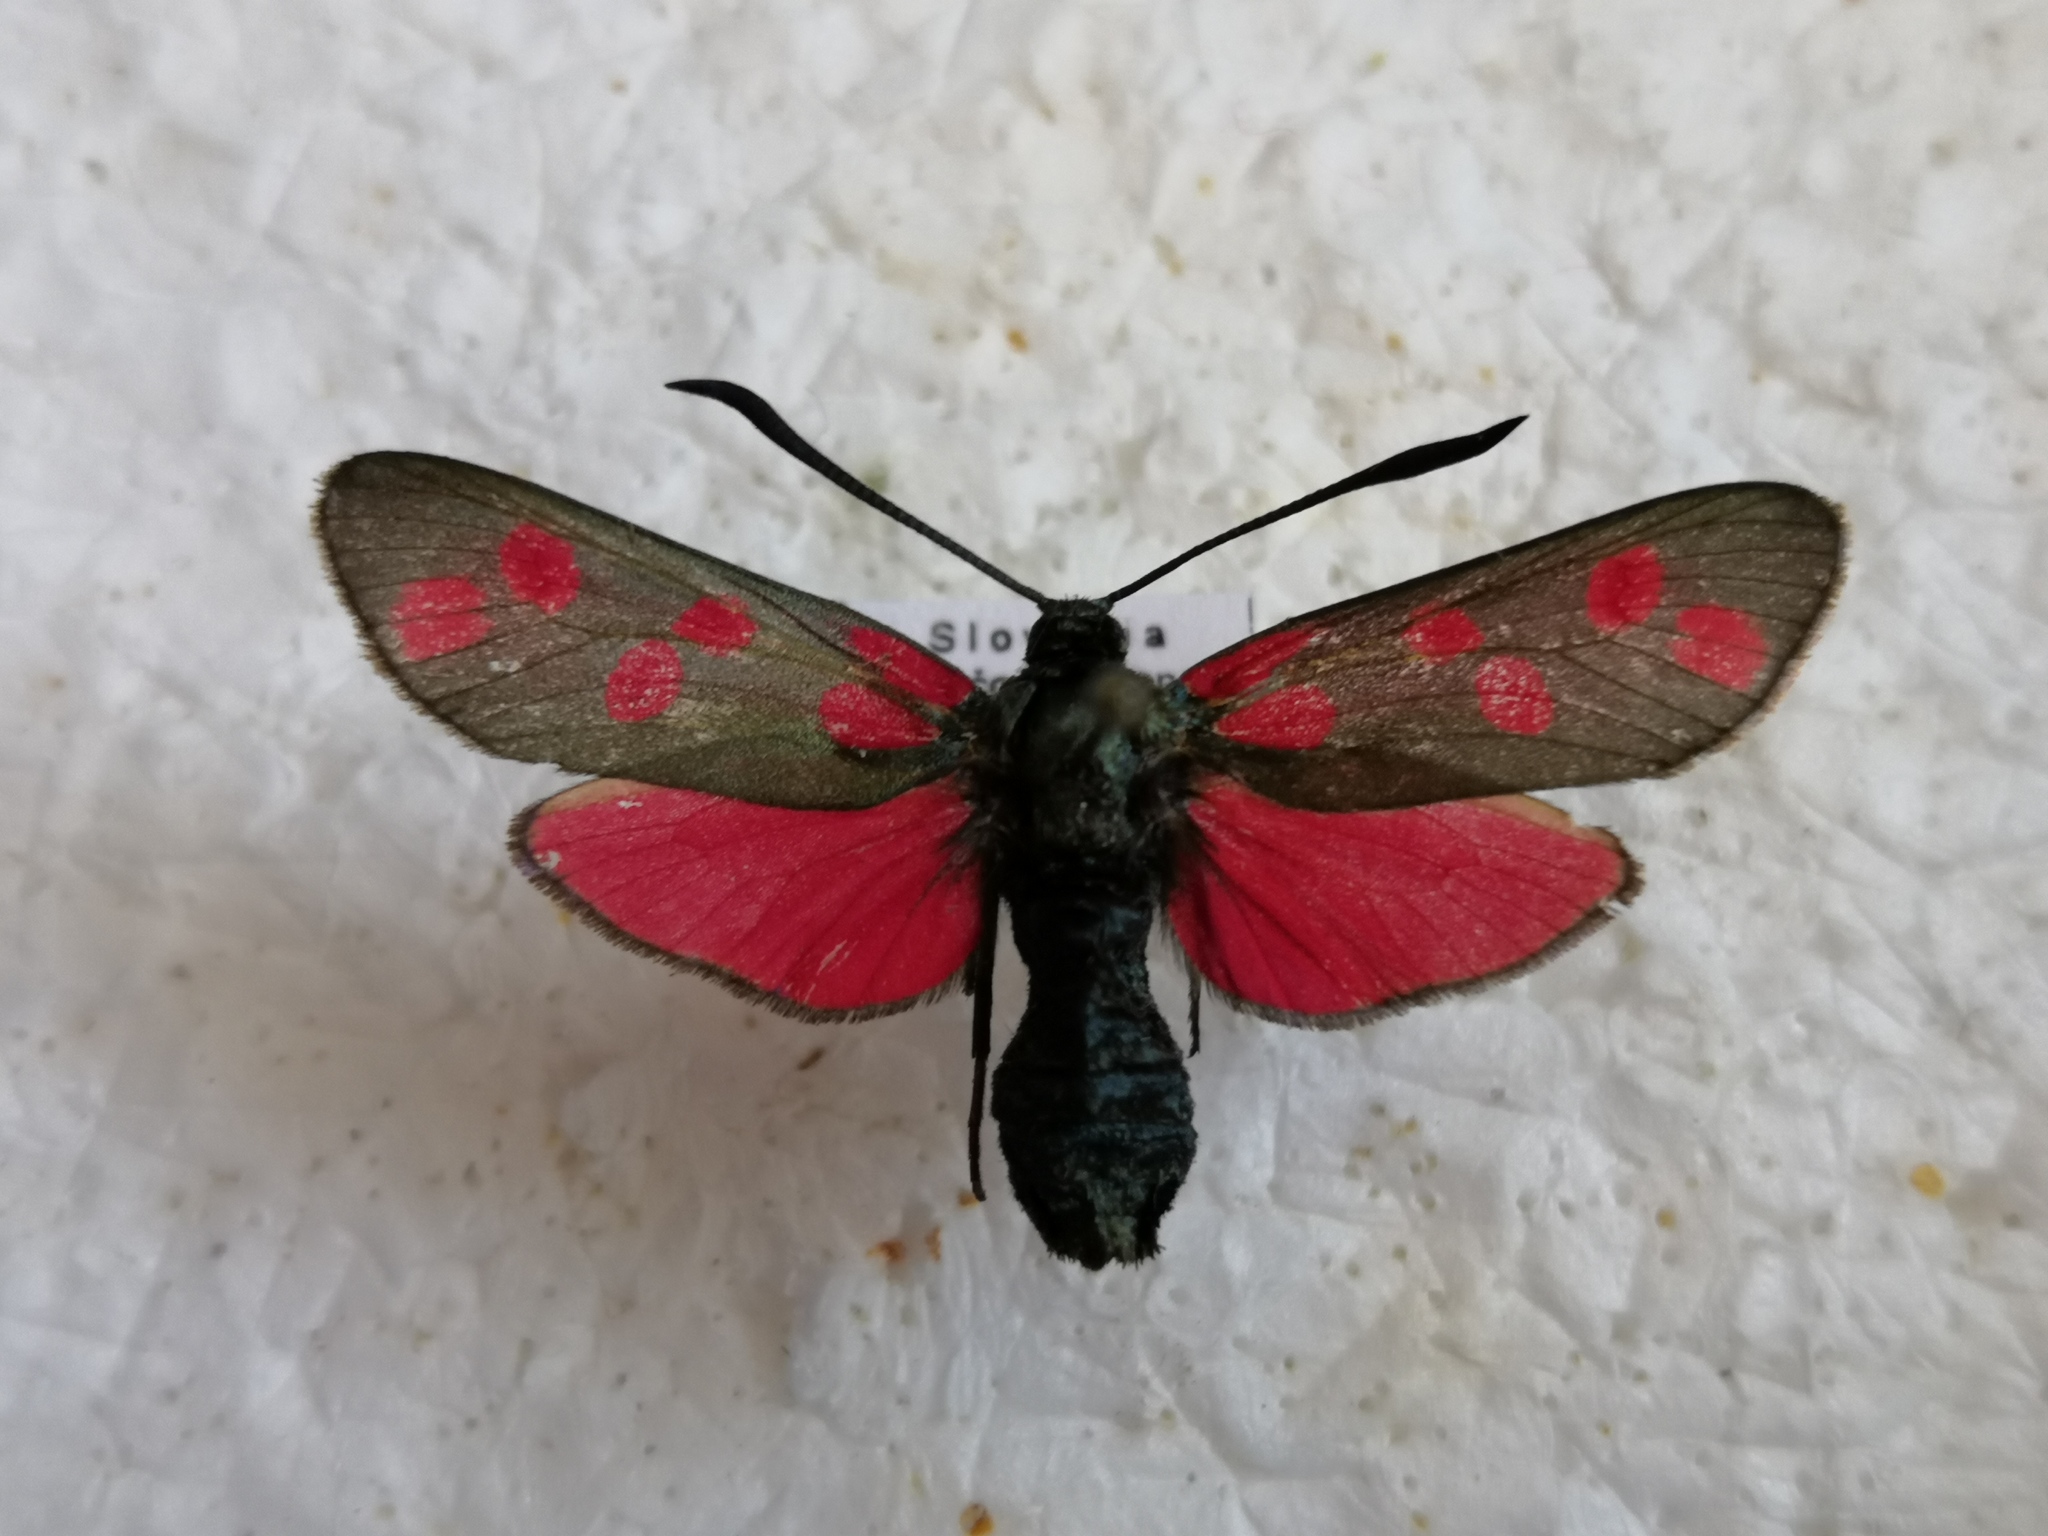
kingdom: Animalia
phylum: Arthropoda
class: Insecta
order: Lepidoptera
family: Zygaenidae
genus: Zygaena
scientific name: Zygaena filipendulae
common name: Six-spot burnet
